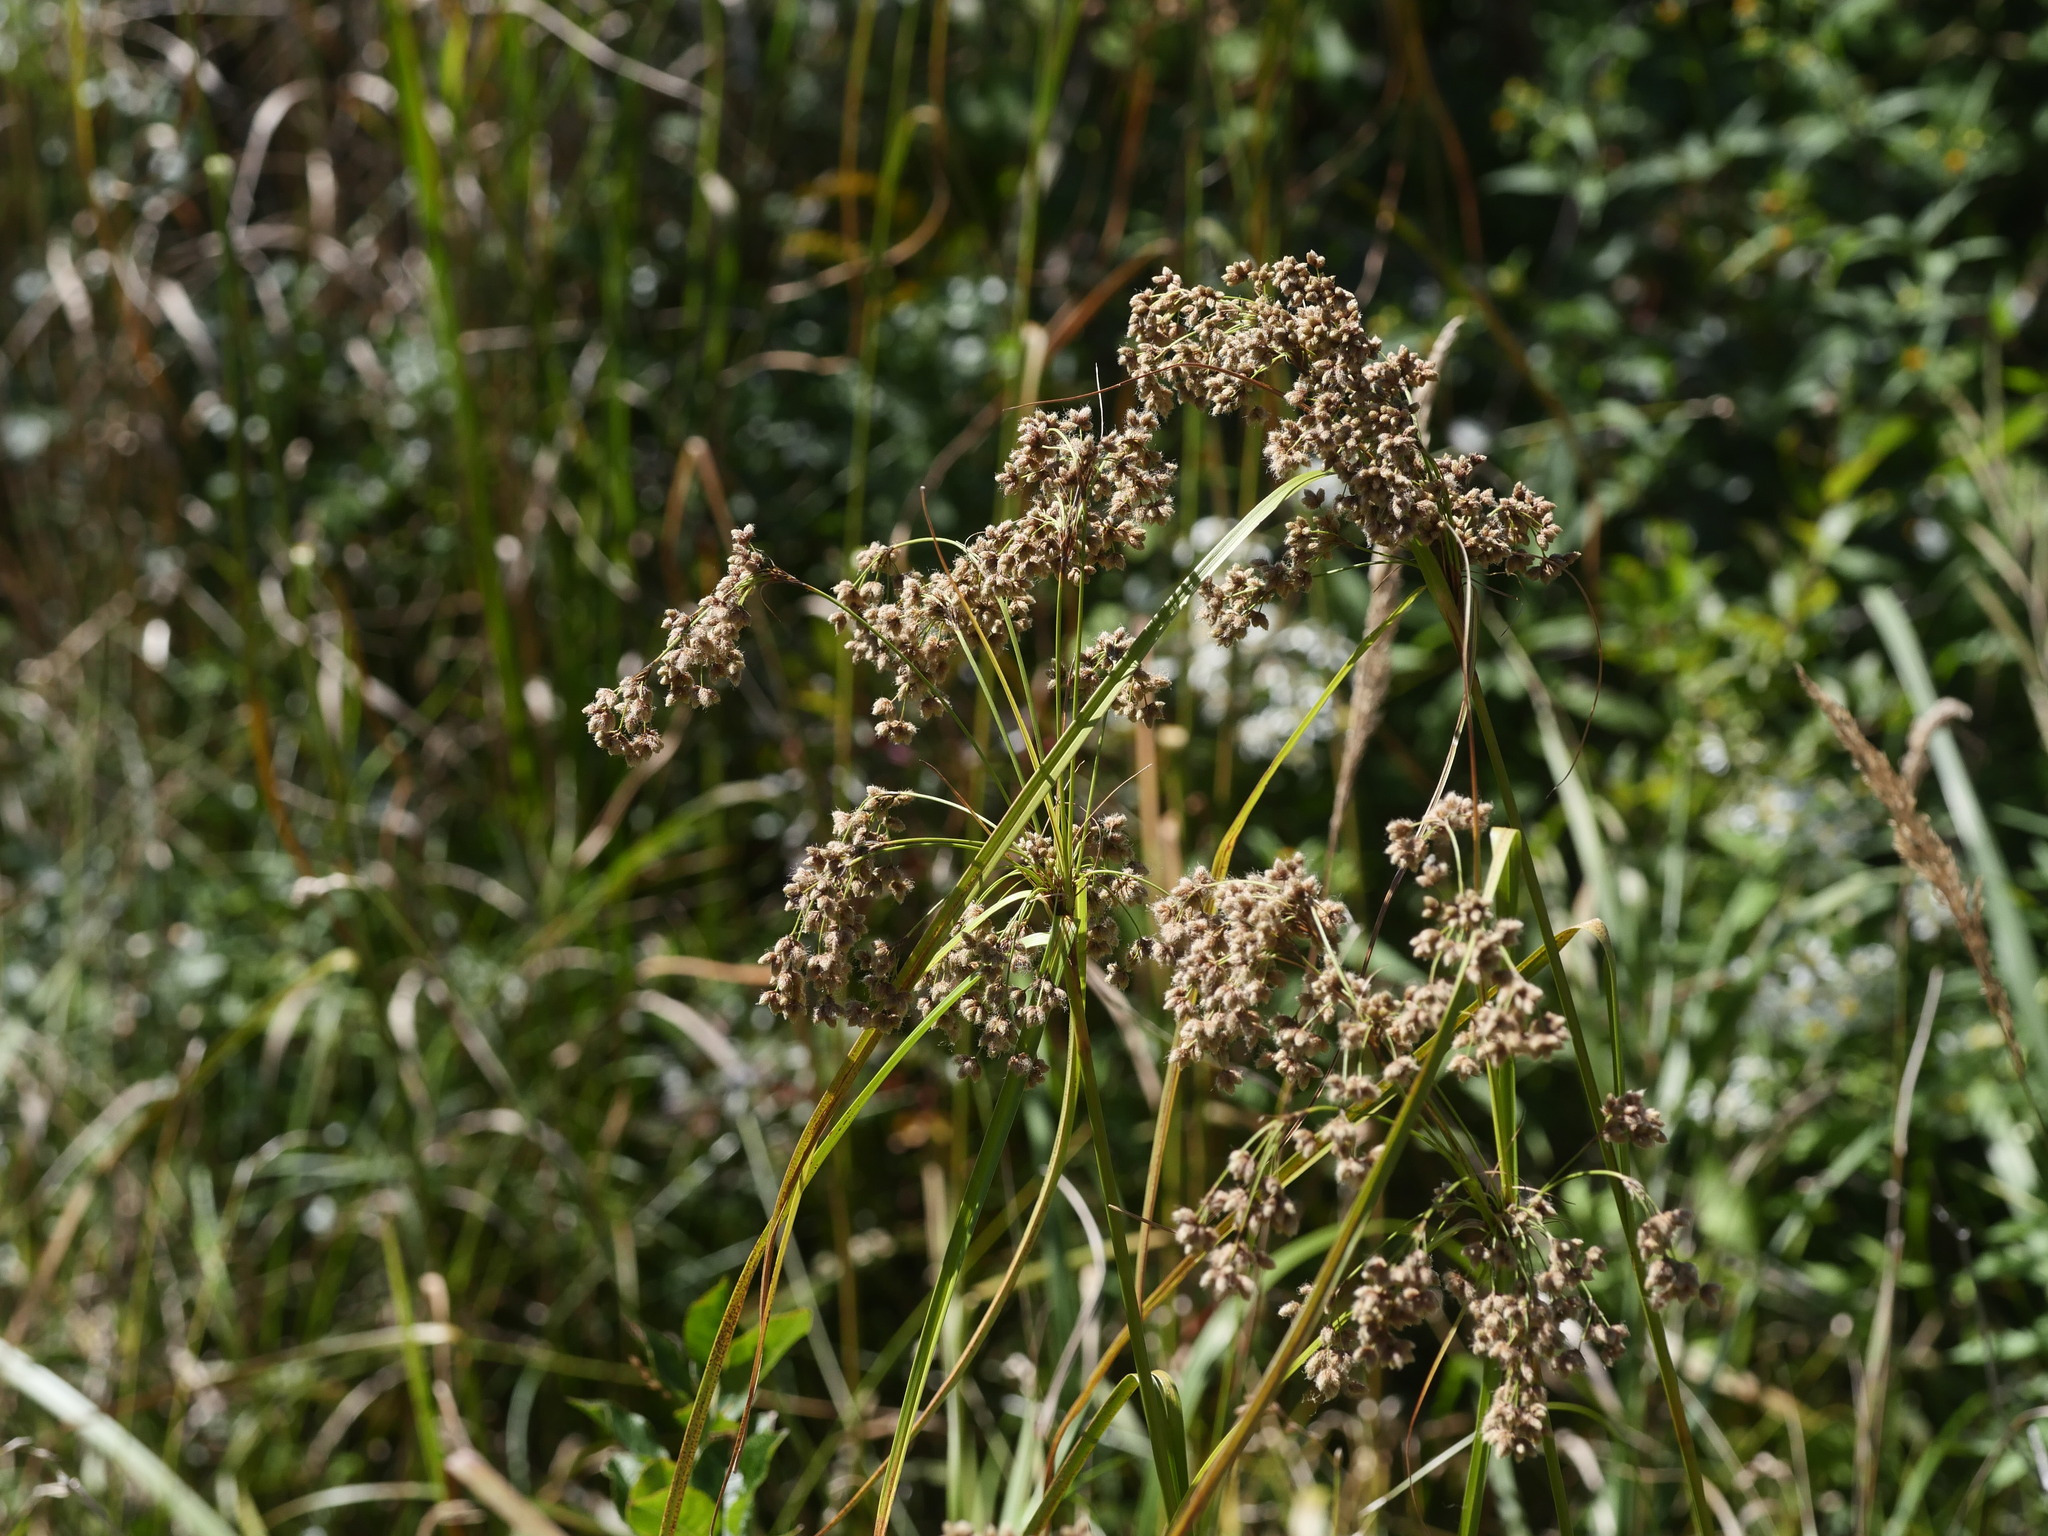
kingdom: Plantae
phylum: Tracheophyta
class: Liliopsida
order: Poales
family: Cyperaceae
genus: Scirpus
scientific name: Scirpus cyperinus
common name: Black-sheathed bulrush
